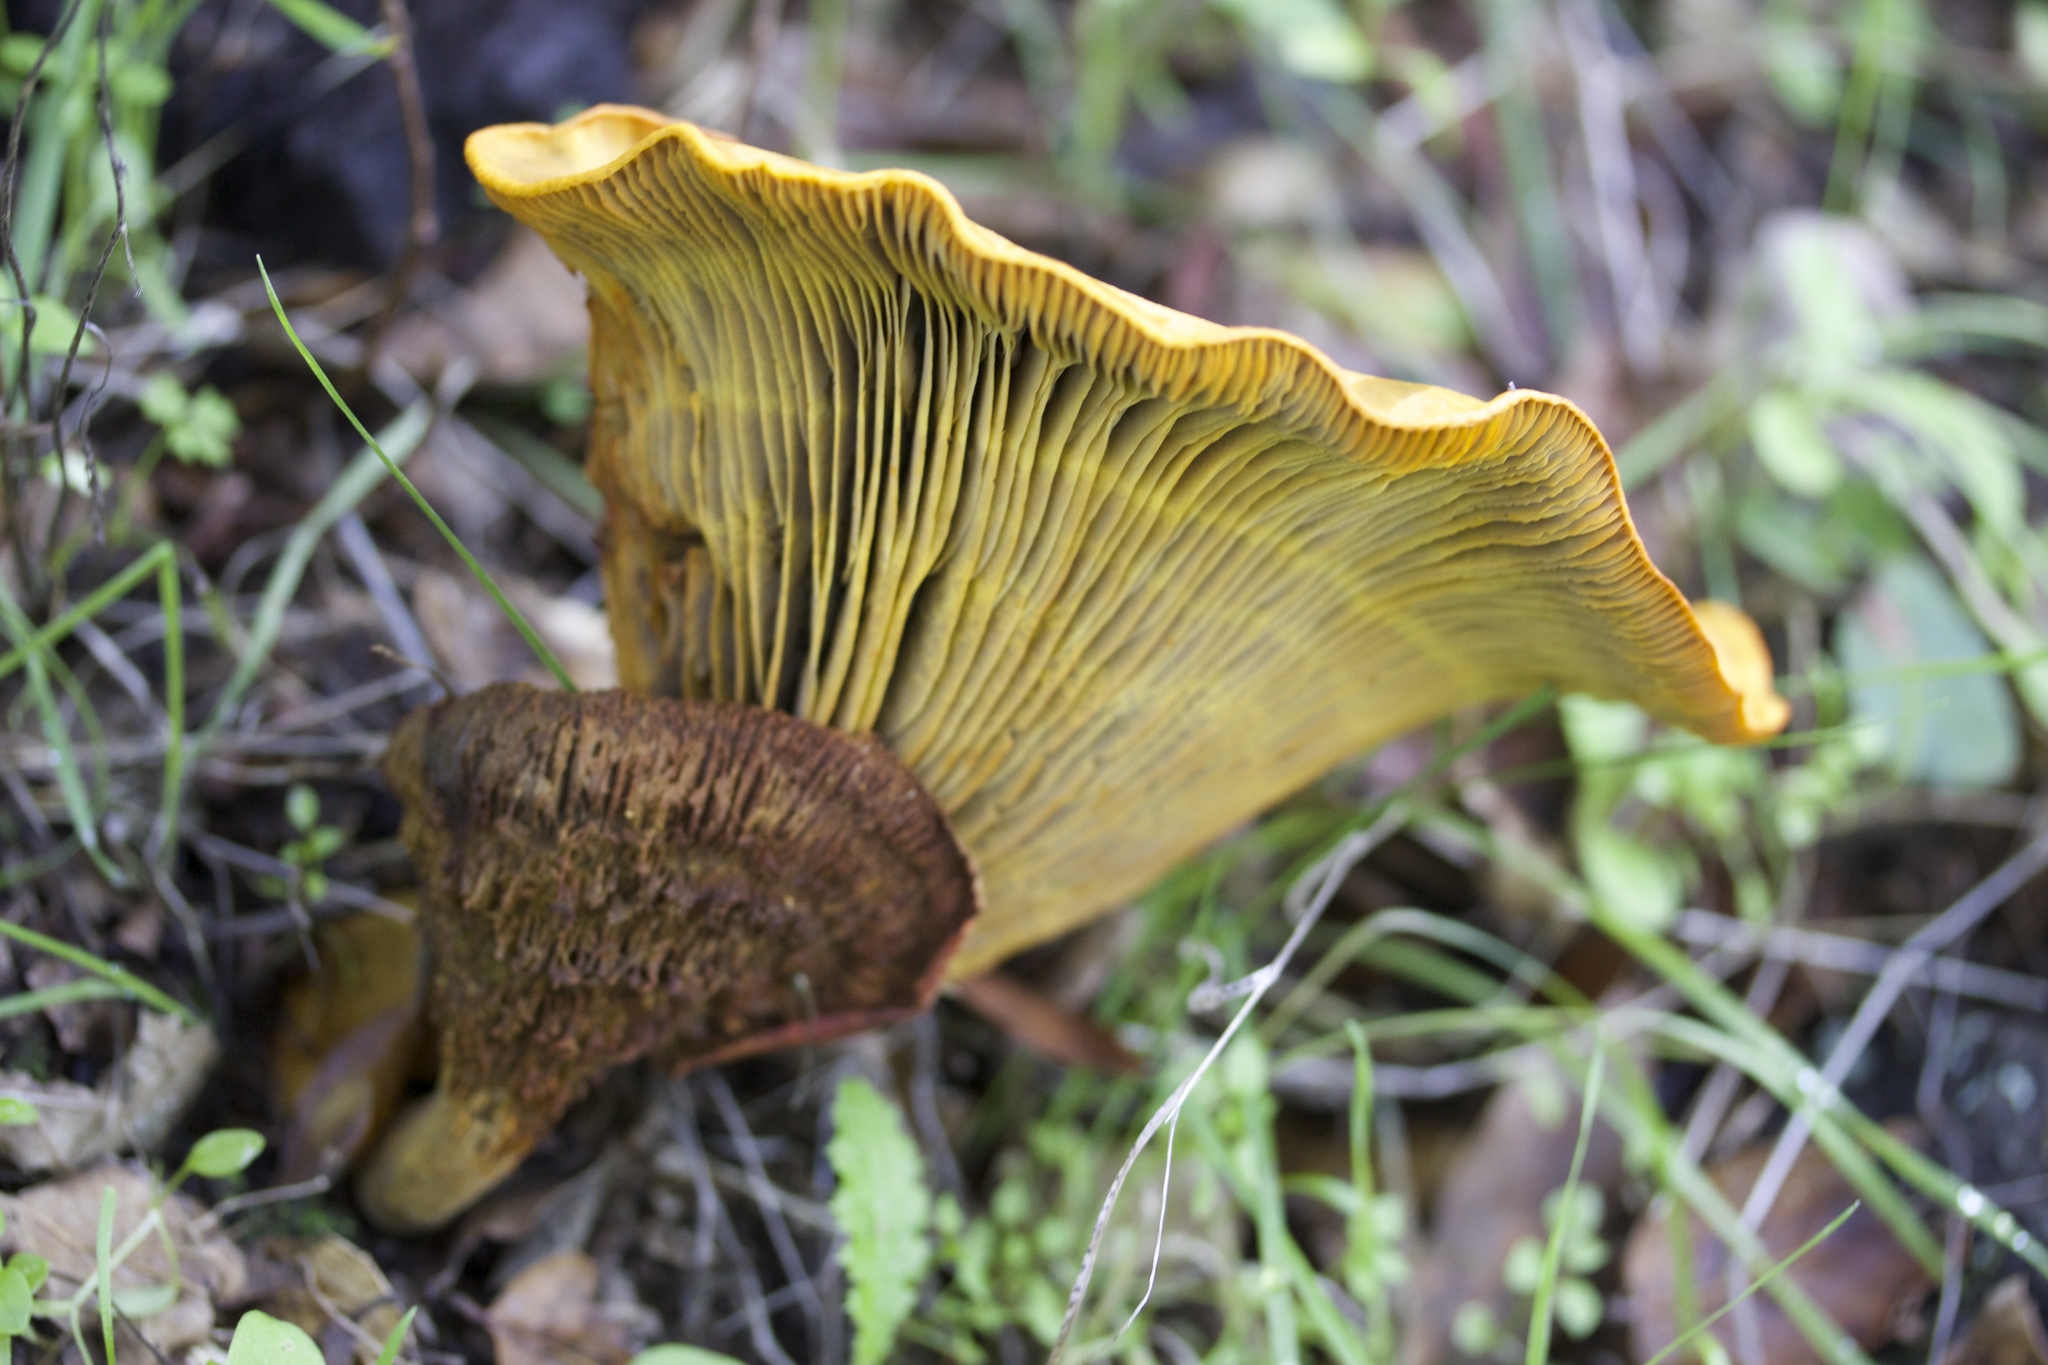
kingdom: Fungi
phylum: Basidiomycota
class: Agaricomycetes
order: Agaricales
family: Omphalotaceae
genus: Omphalotus
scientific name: Omphalotus olivascens
